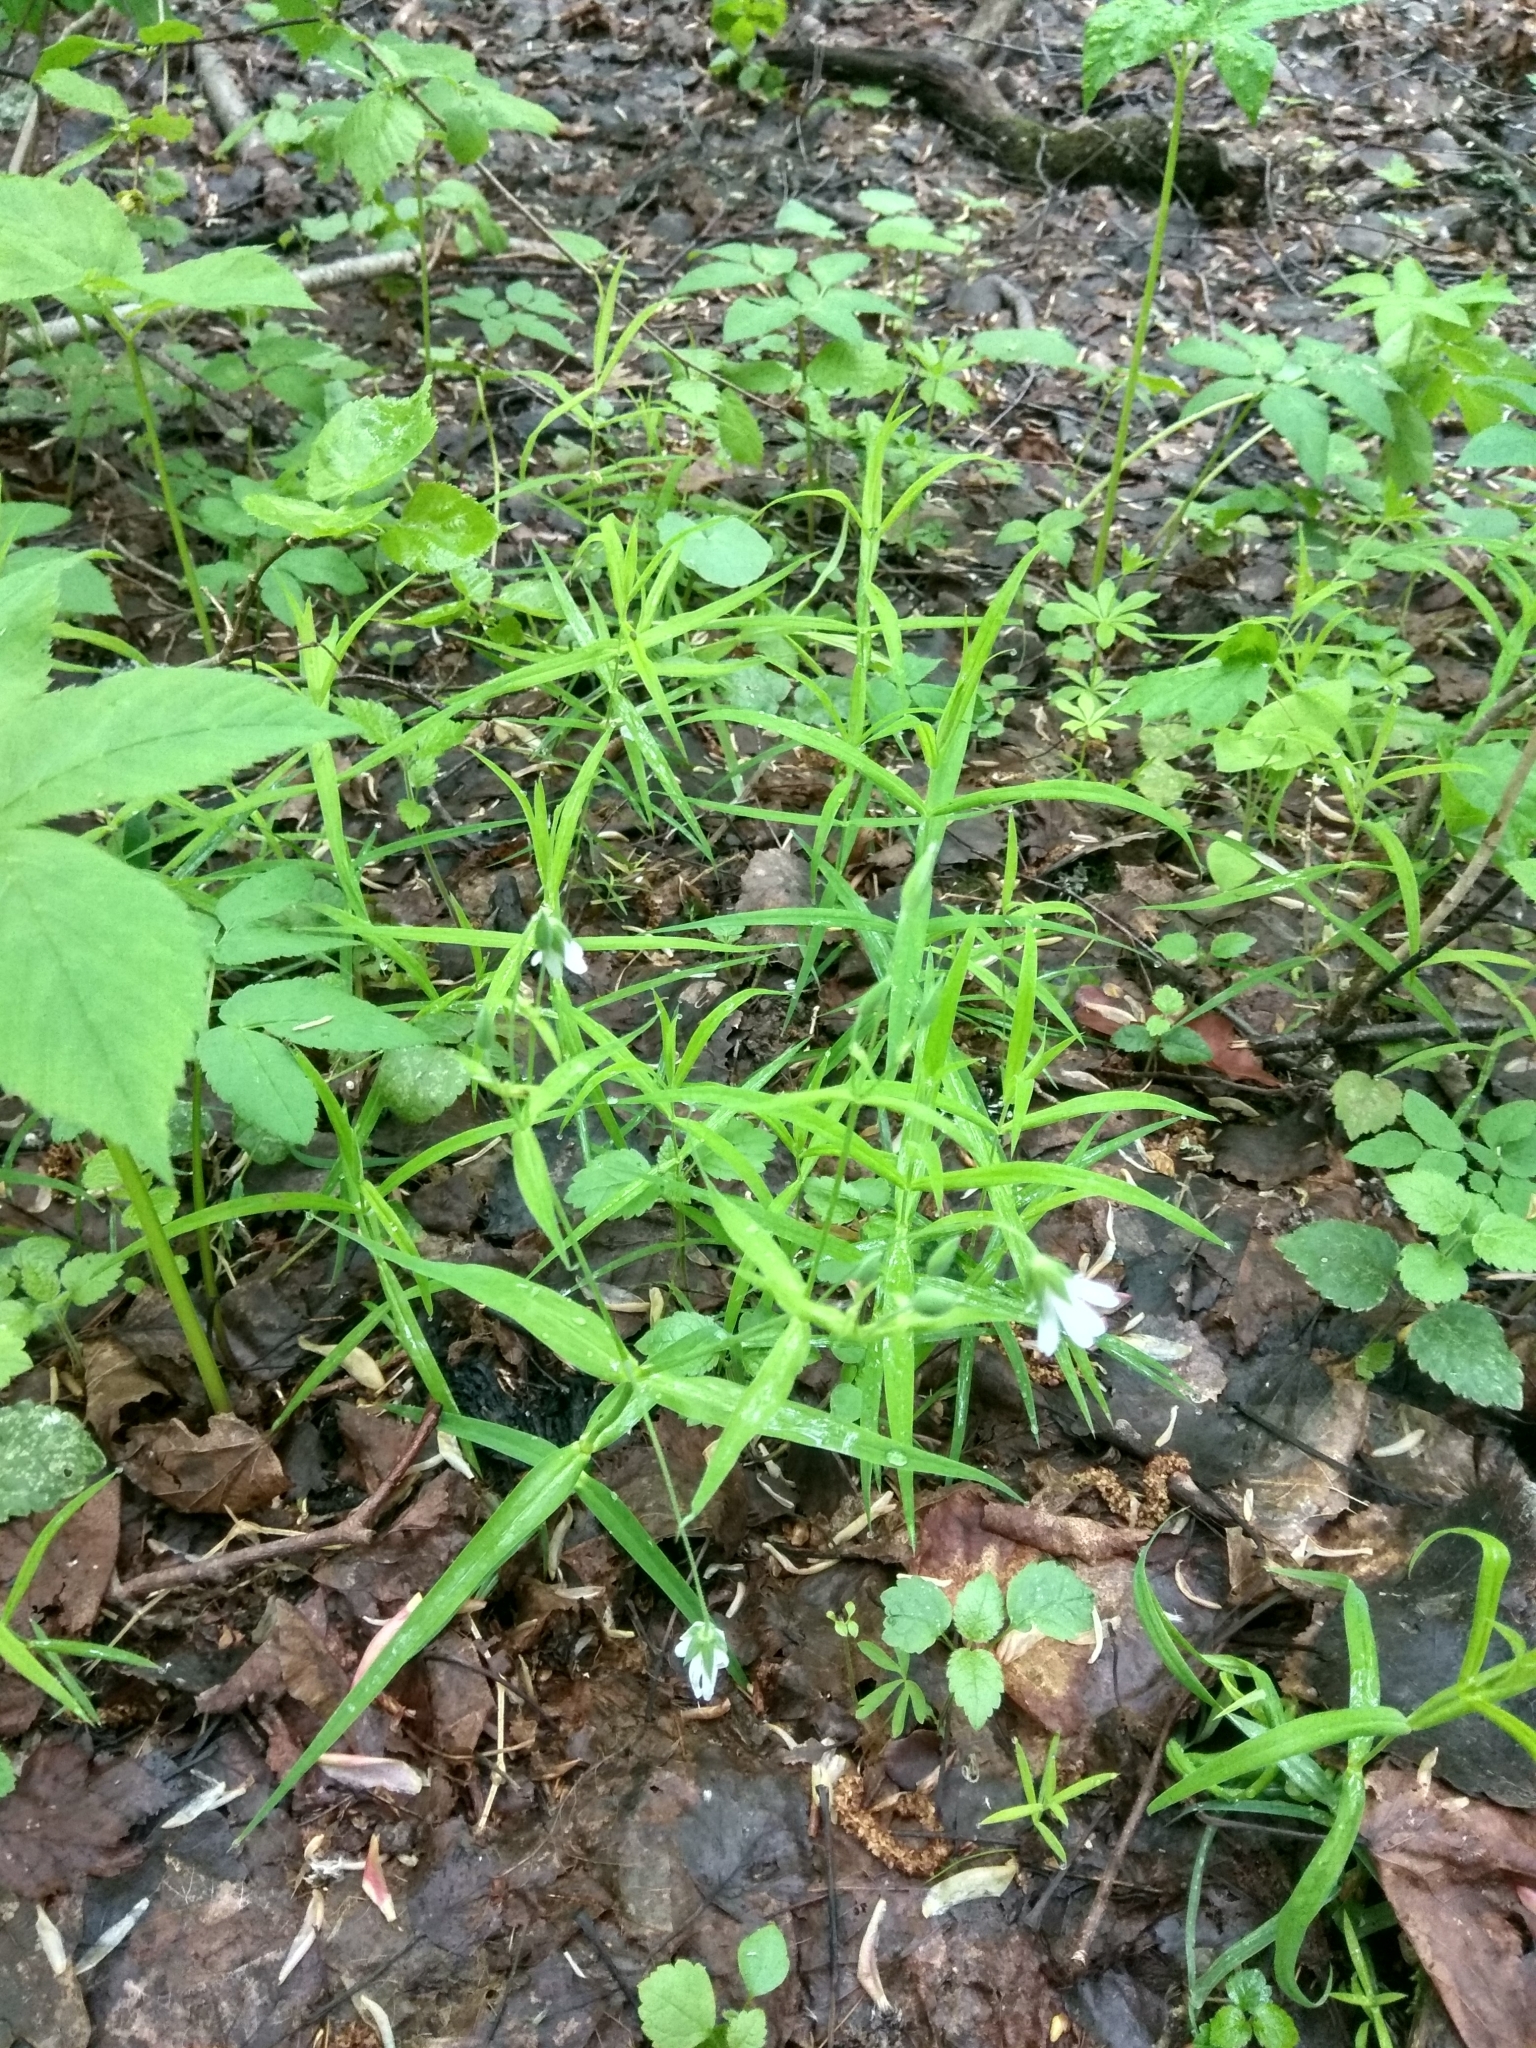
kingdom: Plantae
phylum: Tracheophyta
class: Magnoliopsida
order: Caryophyllales
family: Caryophyllaceae
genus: Rabelera
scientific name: Rabelera holostea
